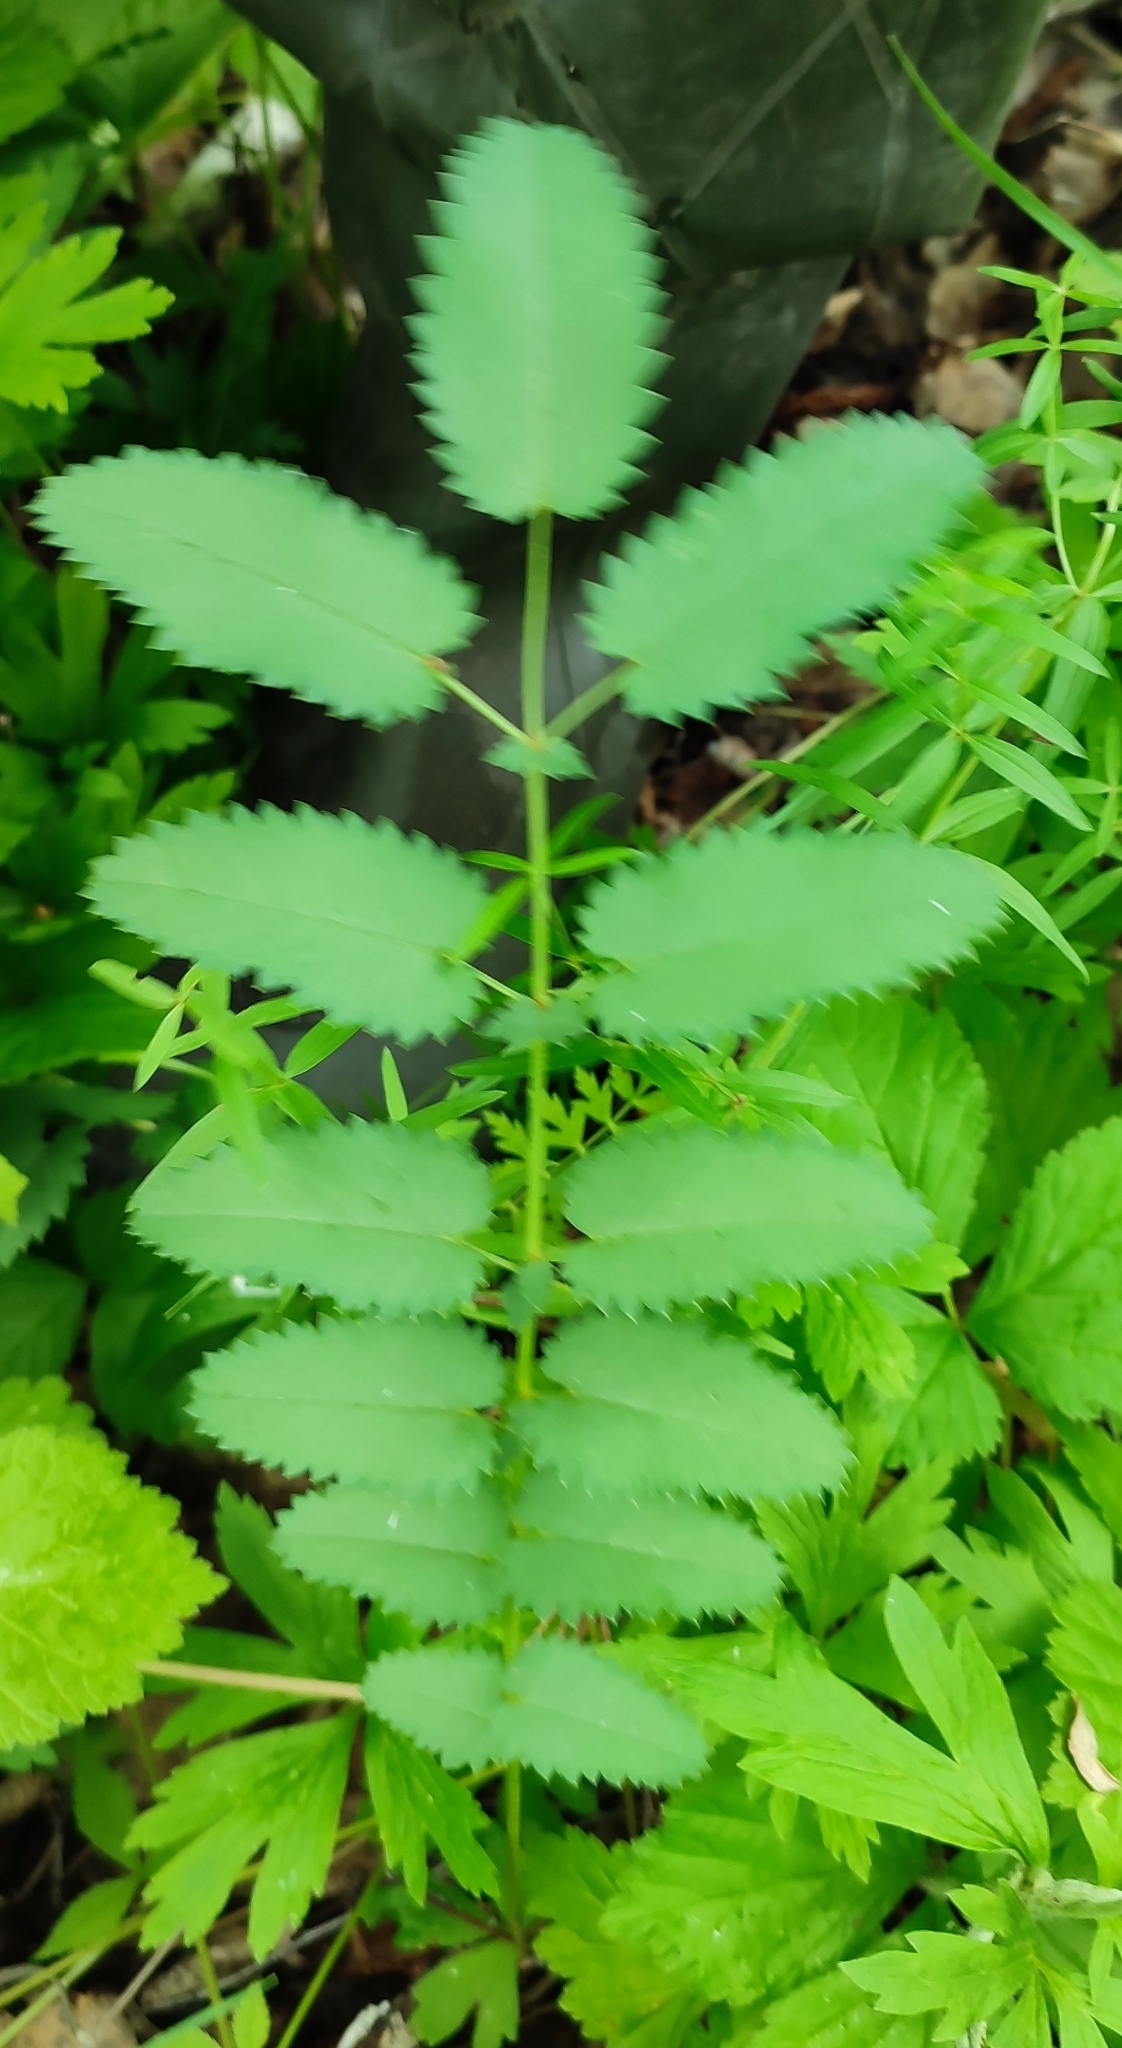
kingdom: Plantae
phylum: Tracheophyta
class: Magnoliopsida
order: Rosales
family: Rosaceae
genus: Sanguisorba
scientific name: Sanguisorba officinalis
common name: Great burnet
